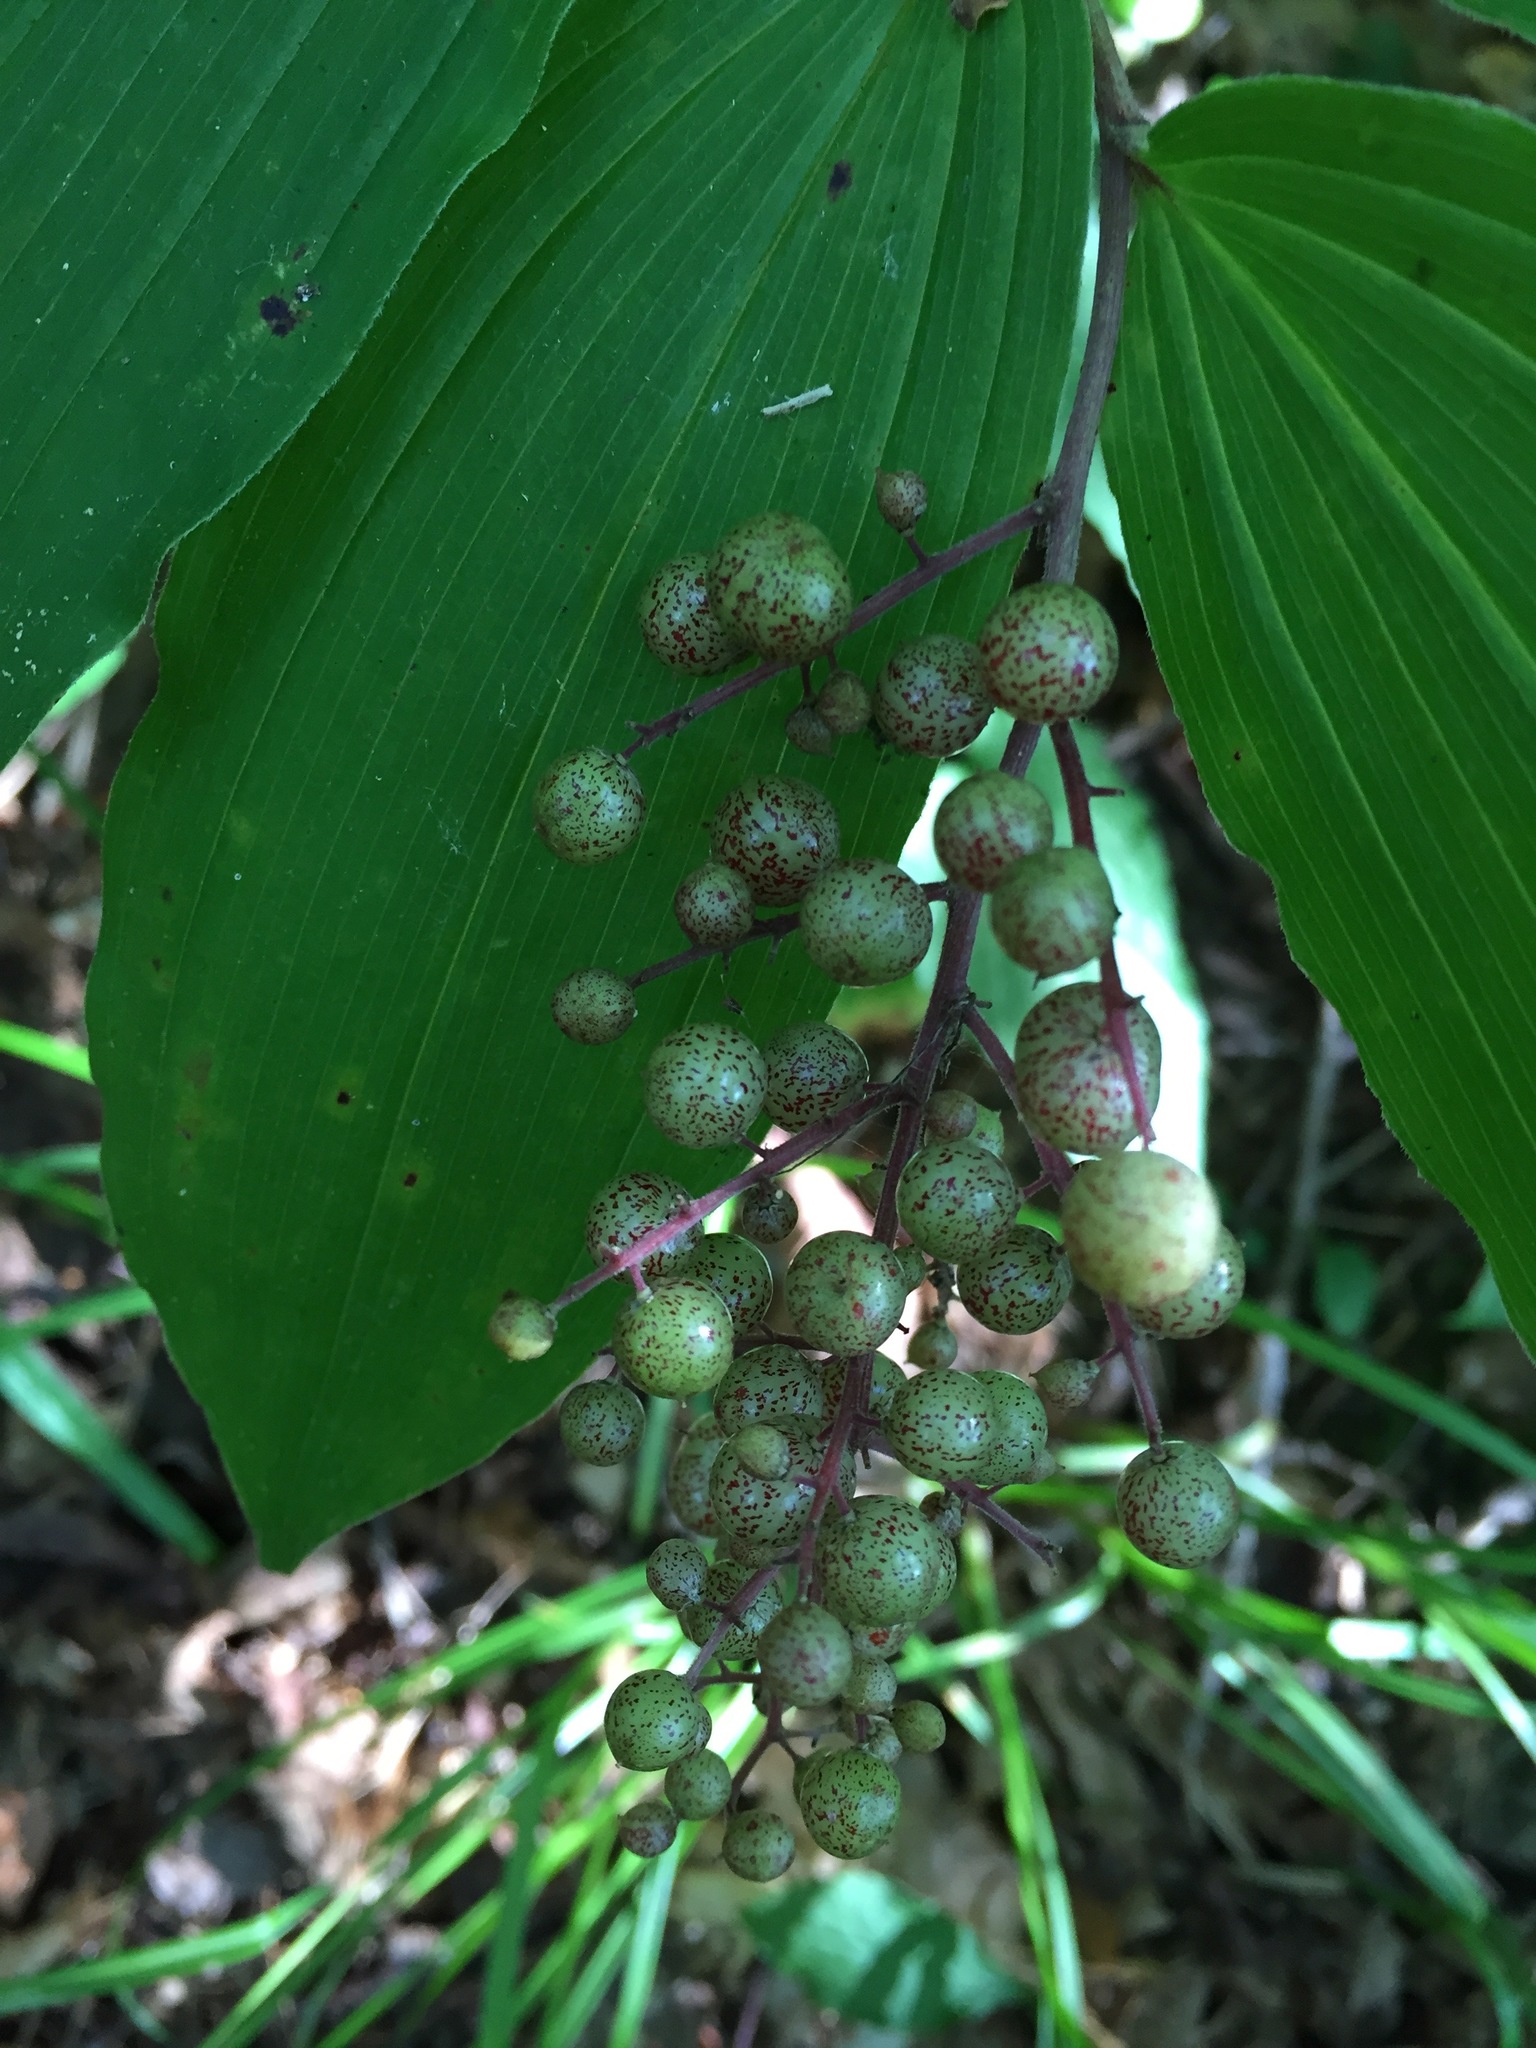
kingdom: Plantae
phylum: Tracheophyta
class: Liliopsida
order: Asparagales
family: Asparagaceae
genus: Maianthemum
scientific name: Maianthemum racemosum
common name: False spikenard
